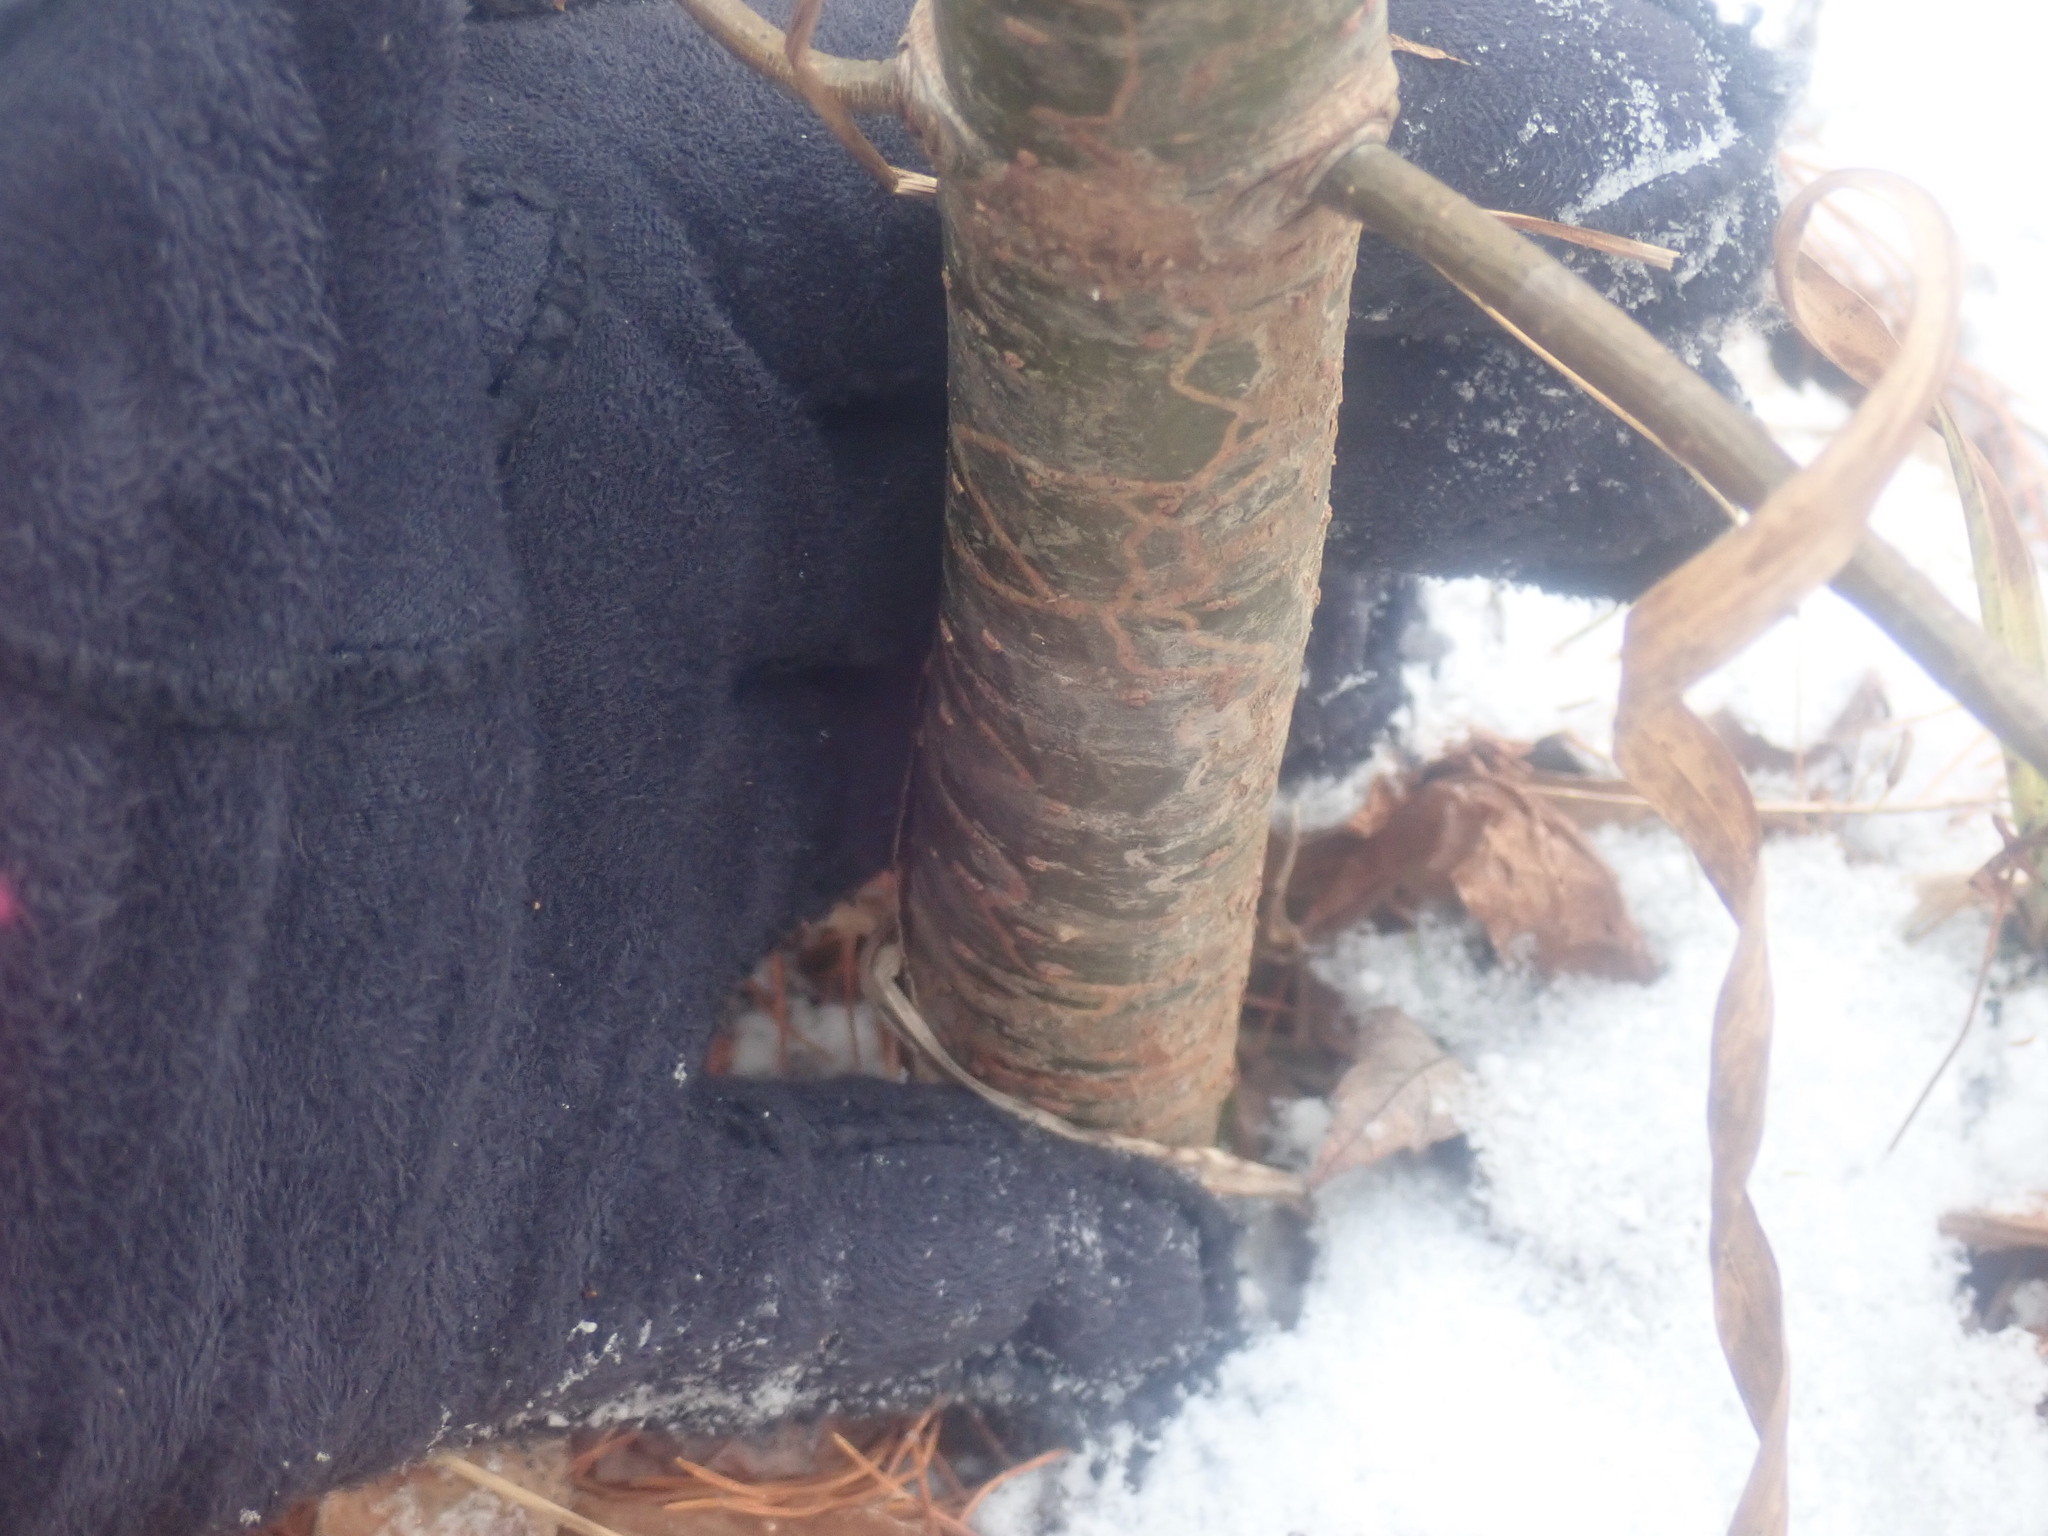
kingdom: Animalia
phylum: Arthropoda
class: Insecta
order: Lepidoptera
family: Gracillariidae
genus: Marmara
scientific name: Marmara fasciella
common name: White pine barkminer moth
